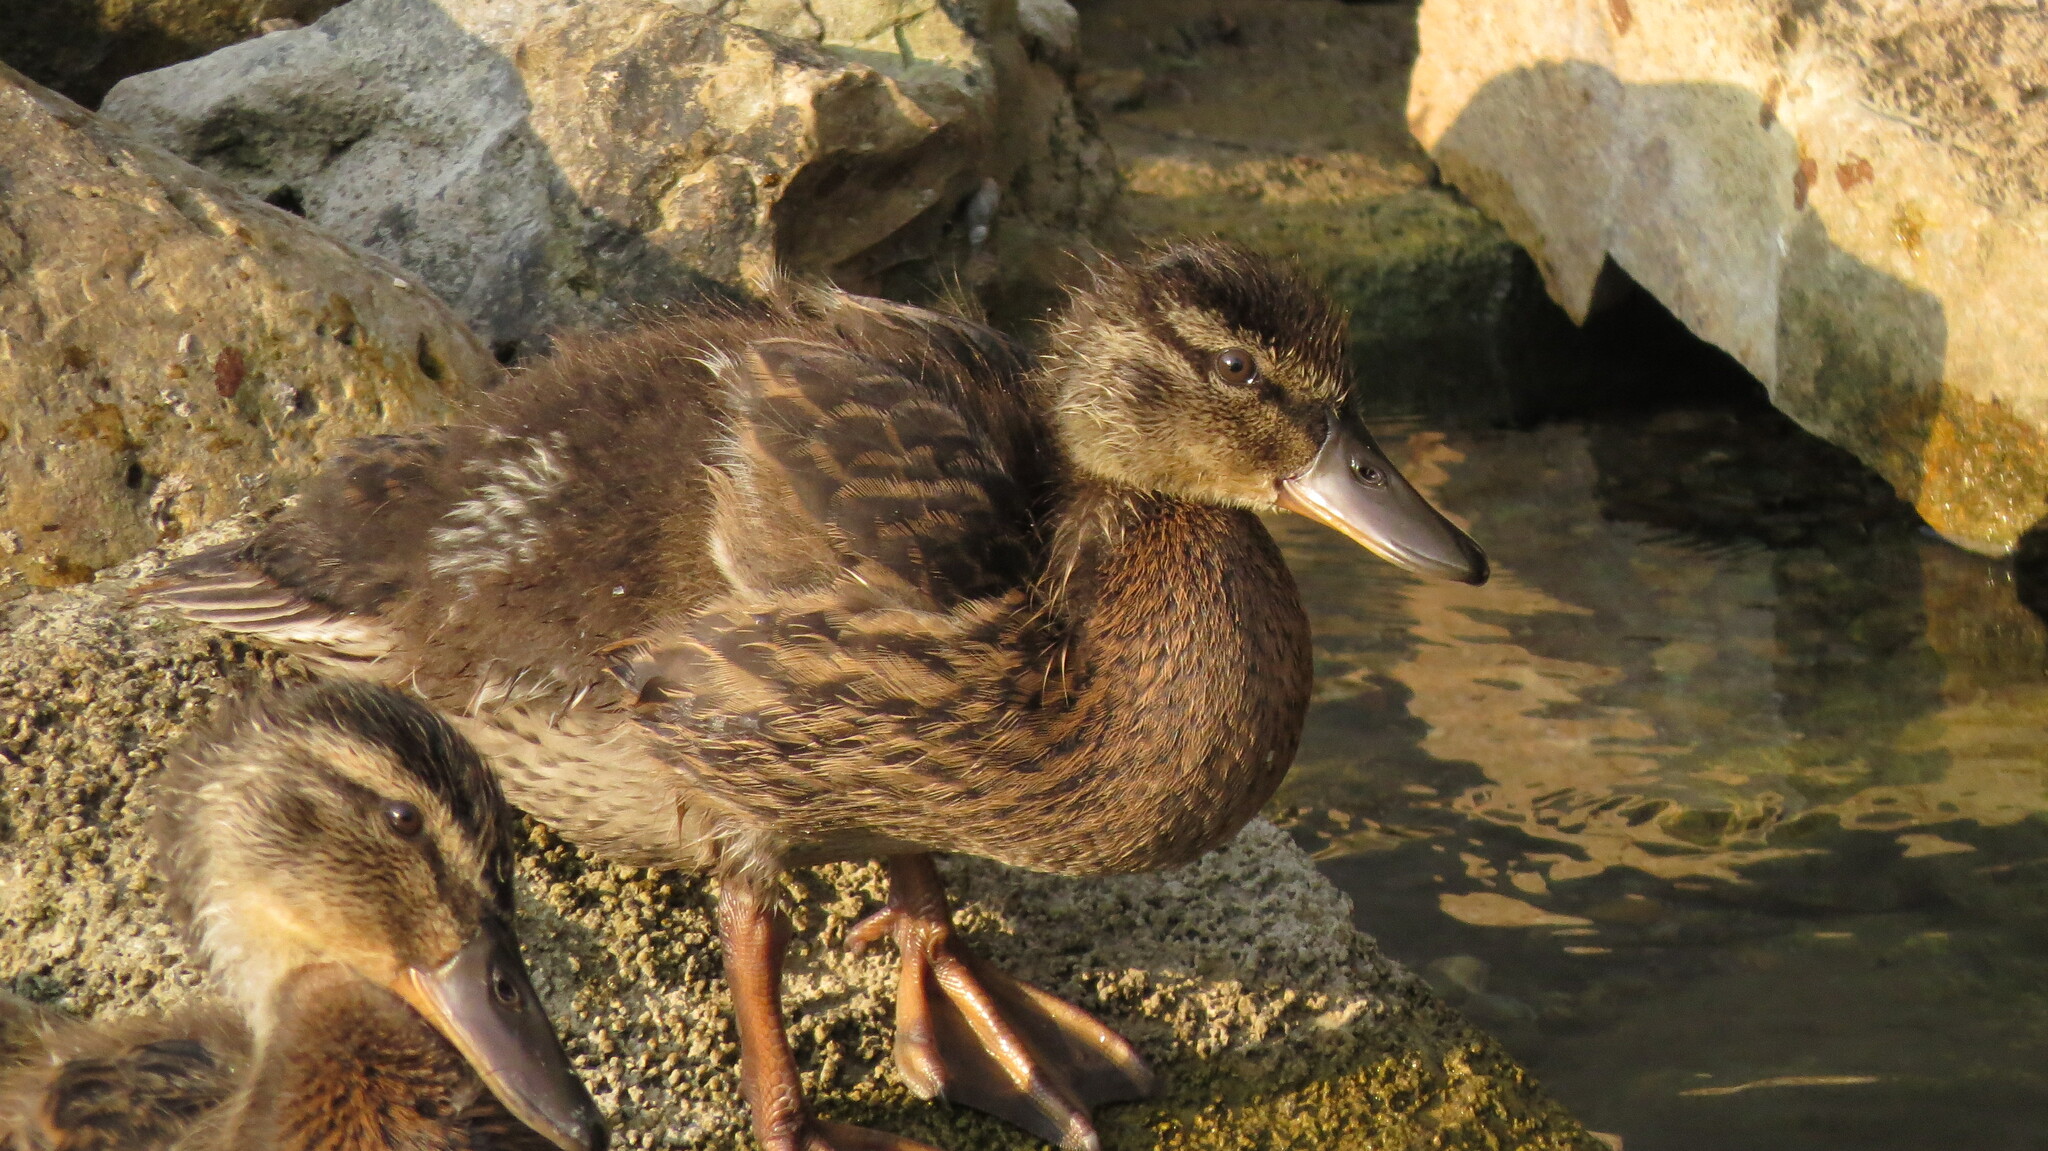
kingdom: Animalia
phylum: Chordata
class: Aves
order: Anseriformes
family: Anatidae
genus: Anas
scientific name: Anas platyrhynchos
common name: Mallard
